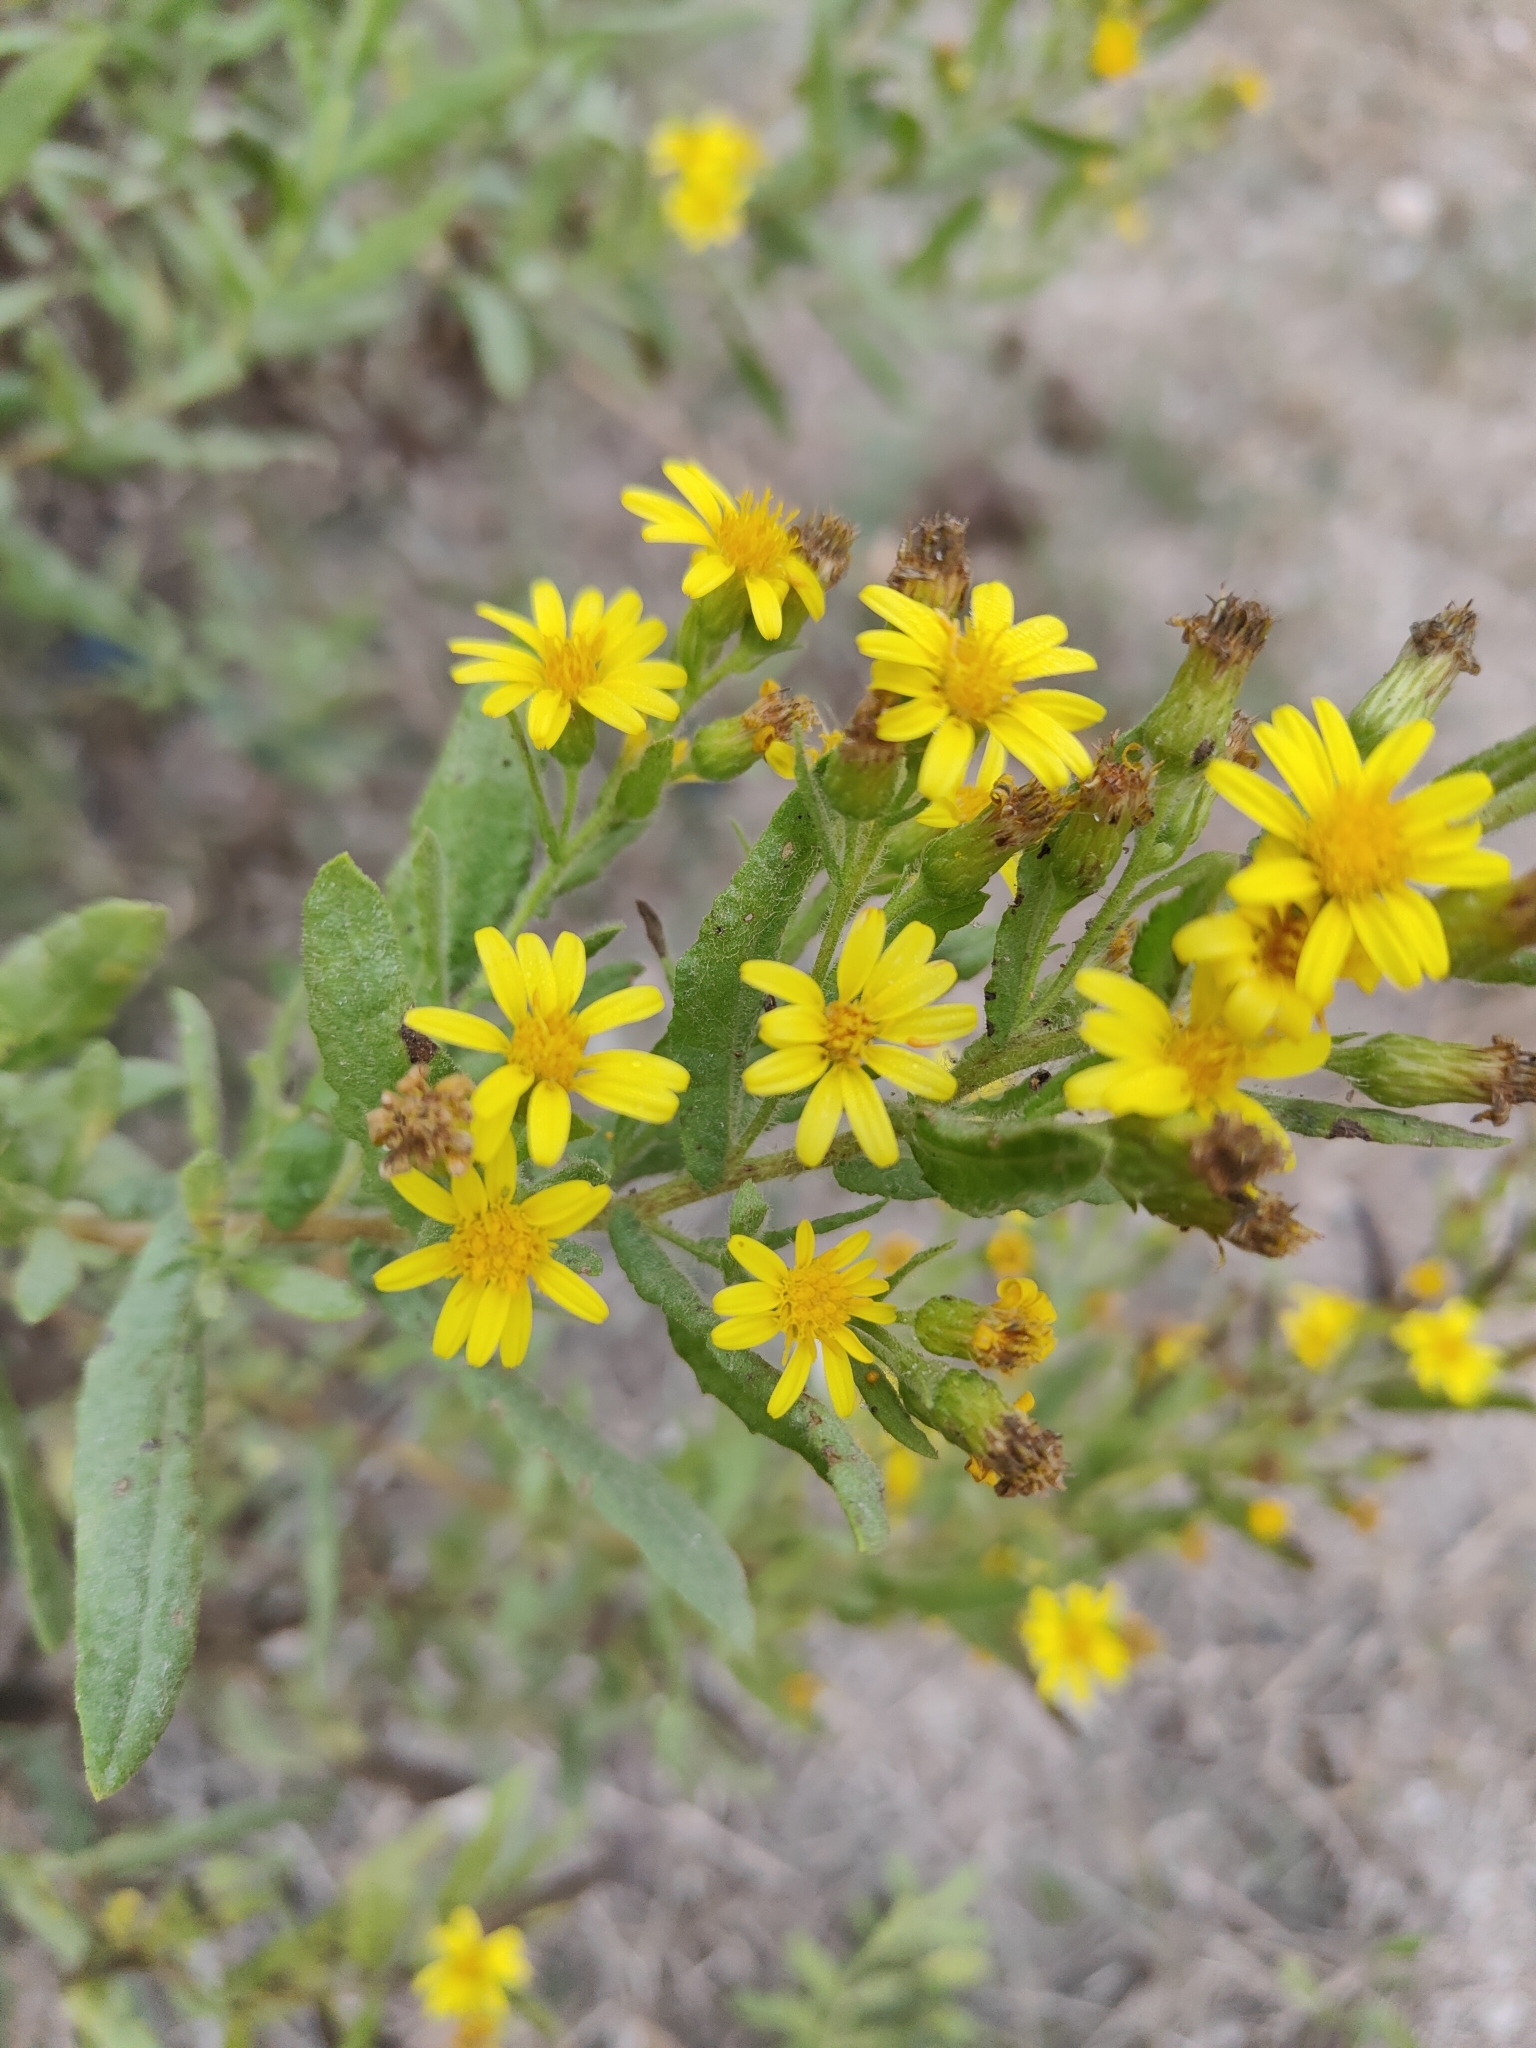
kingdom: Plantae
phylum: Tracheophyta
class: Magnoliopsida
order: Asterales
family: Asteraceae
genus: Dittrichia
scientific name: Dittrichia viscosa
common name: Woody fleabane
